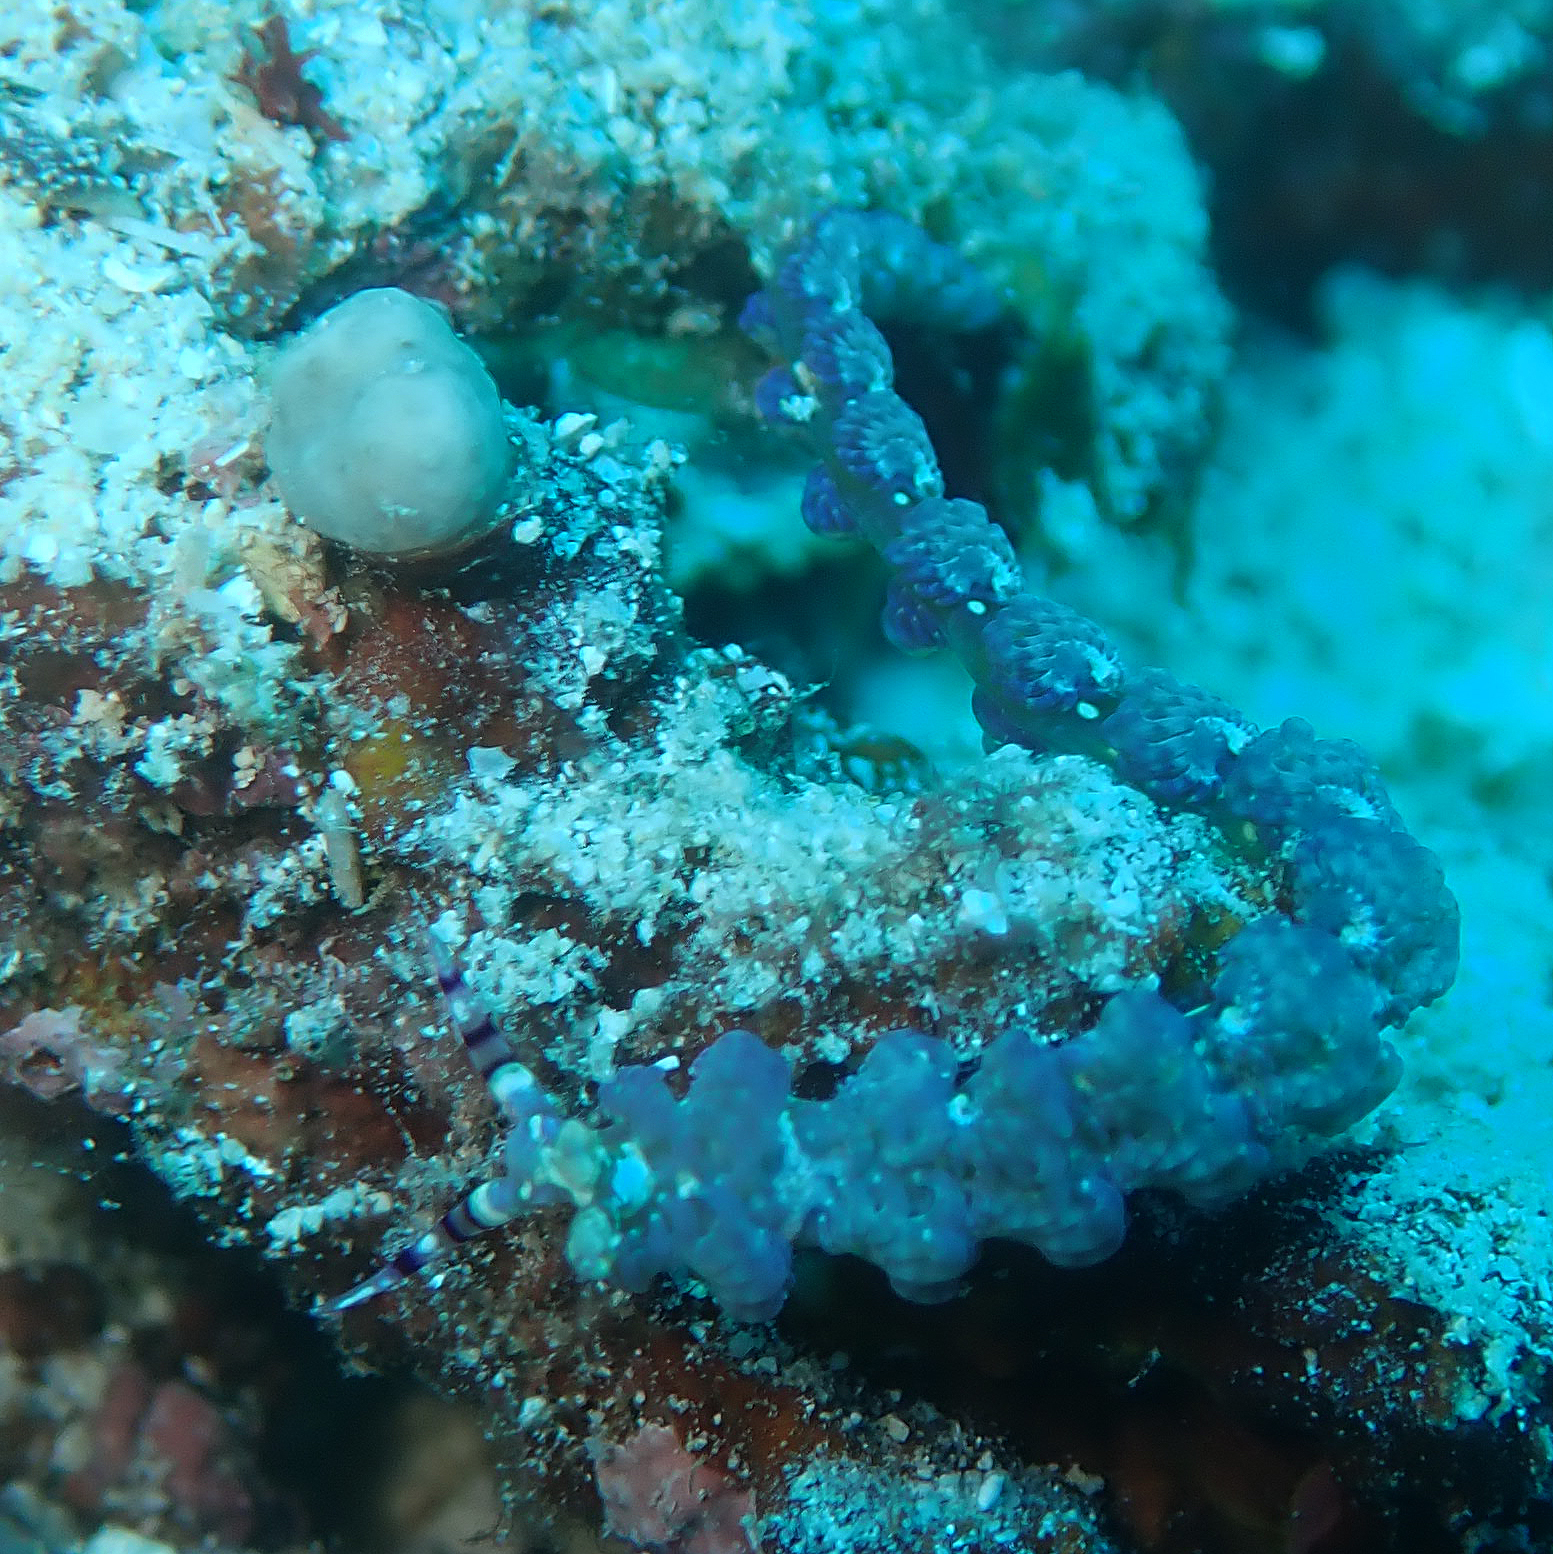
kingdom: Animalia
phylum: Mollusca
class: Gastropoda
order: Nudibranchia
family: Facelinidae
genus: Pteraeolidia
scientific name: Pteraeolidia semperi
